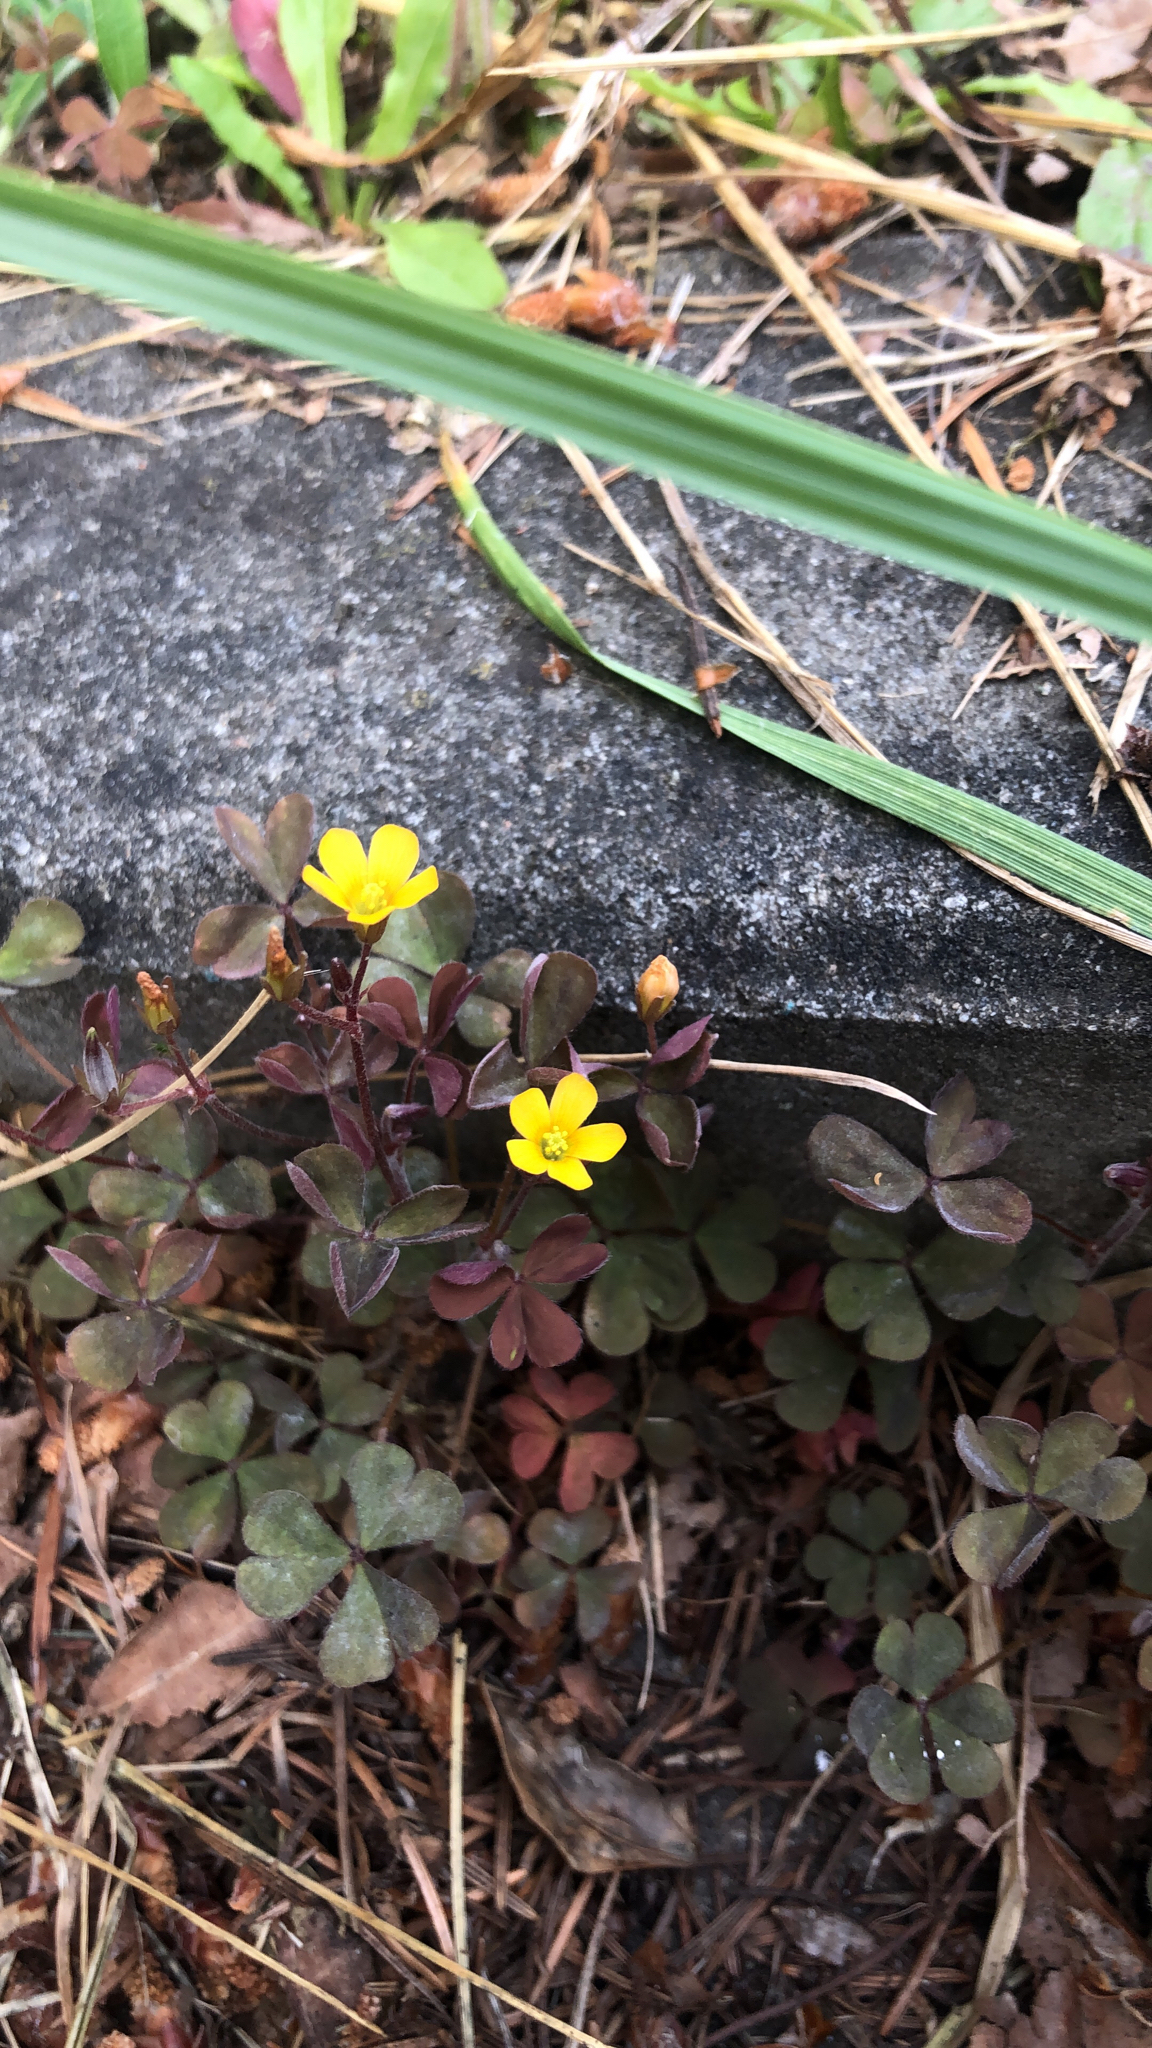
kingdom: Plantae
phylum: Tracheophyta
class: Magnoliopsida
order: Oxalidales
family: Oxalidaceae
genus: Oxalis
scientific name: Oxalis corniculata
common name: Procumbent yellow-sorrel
